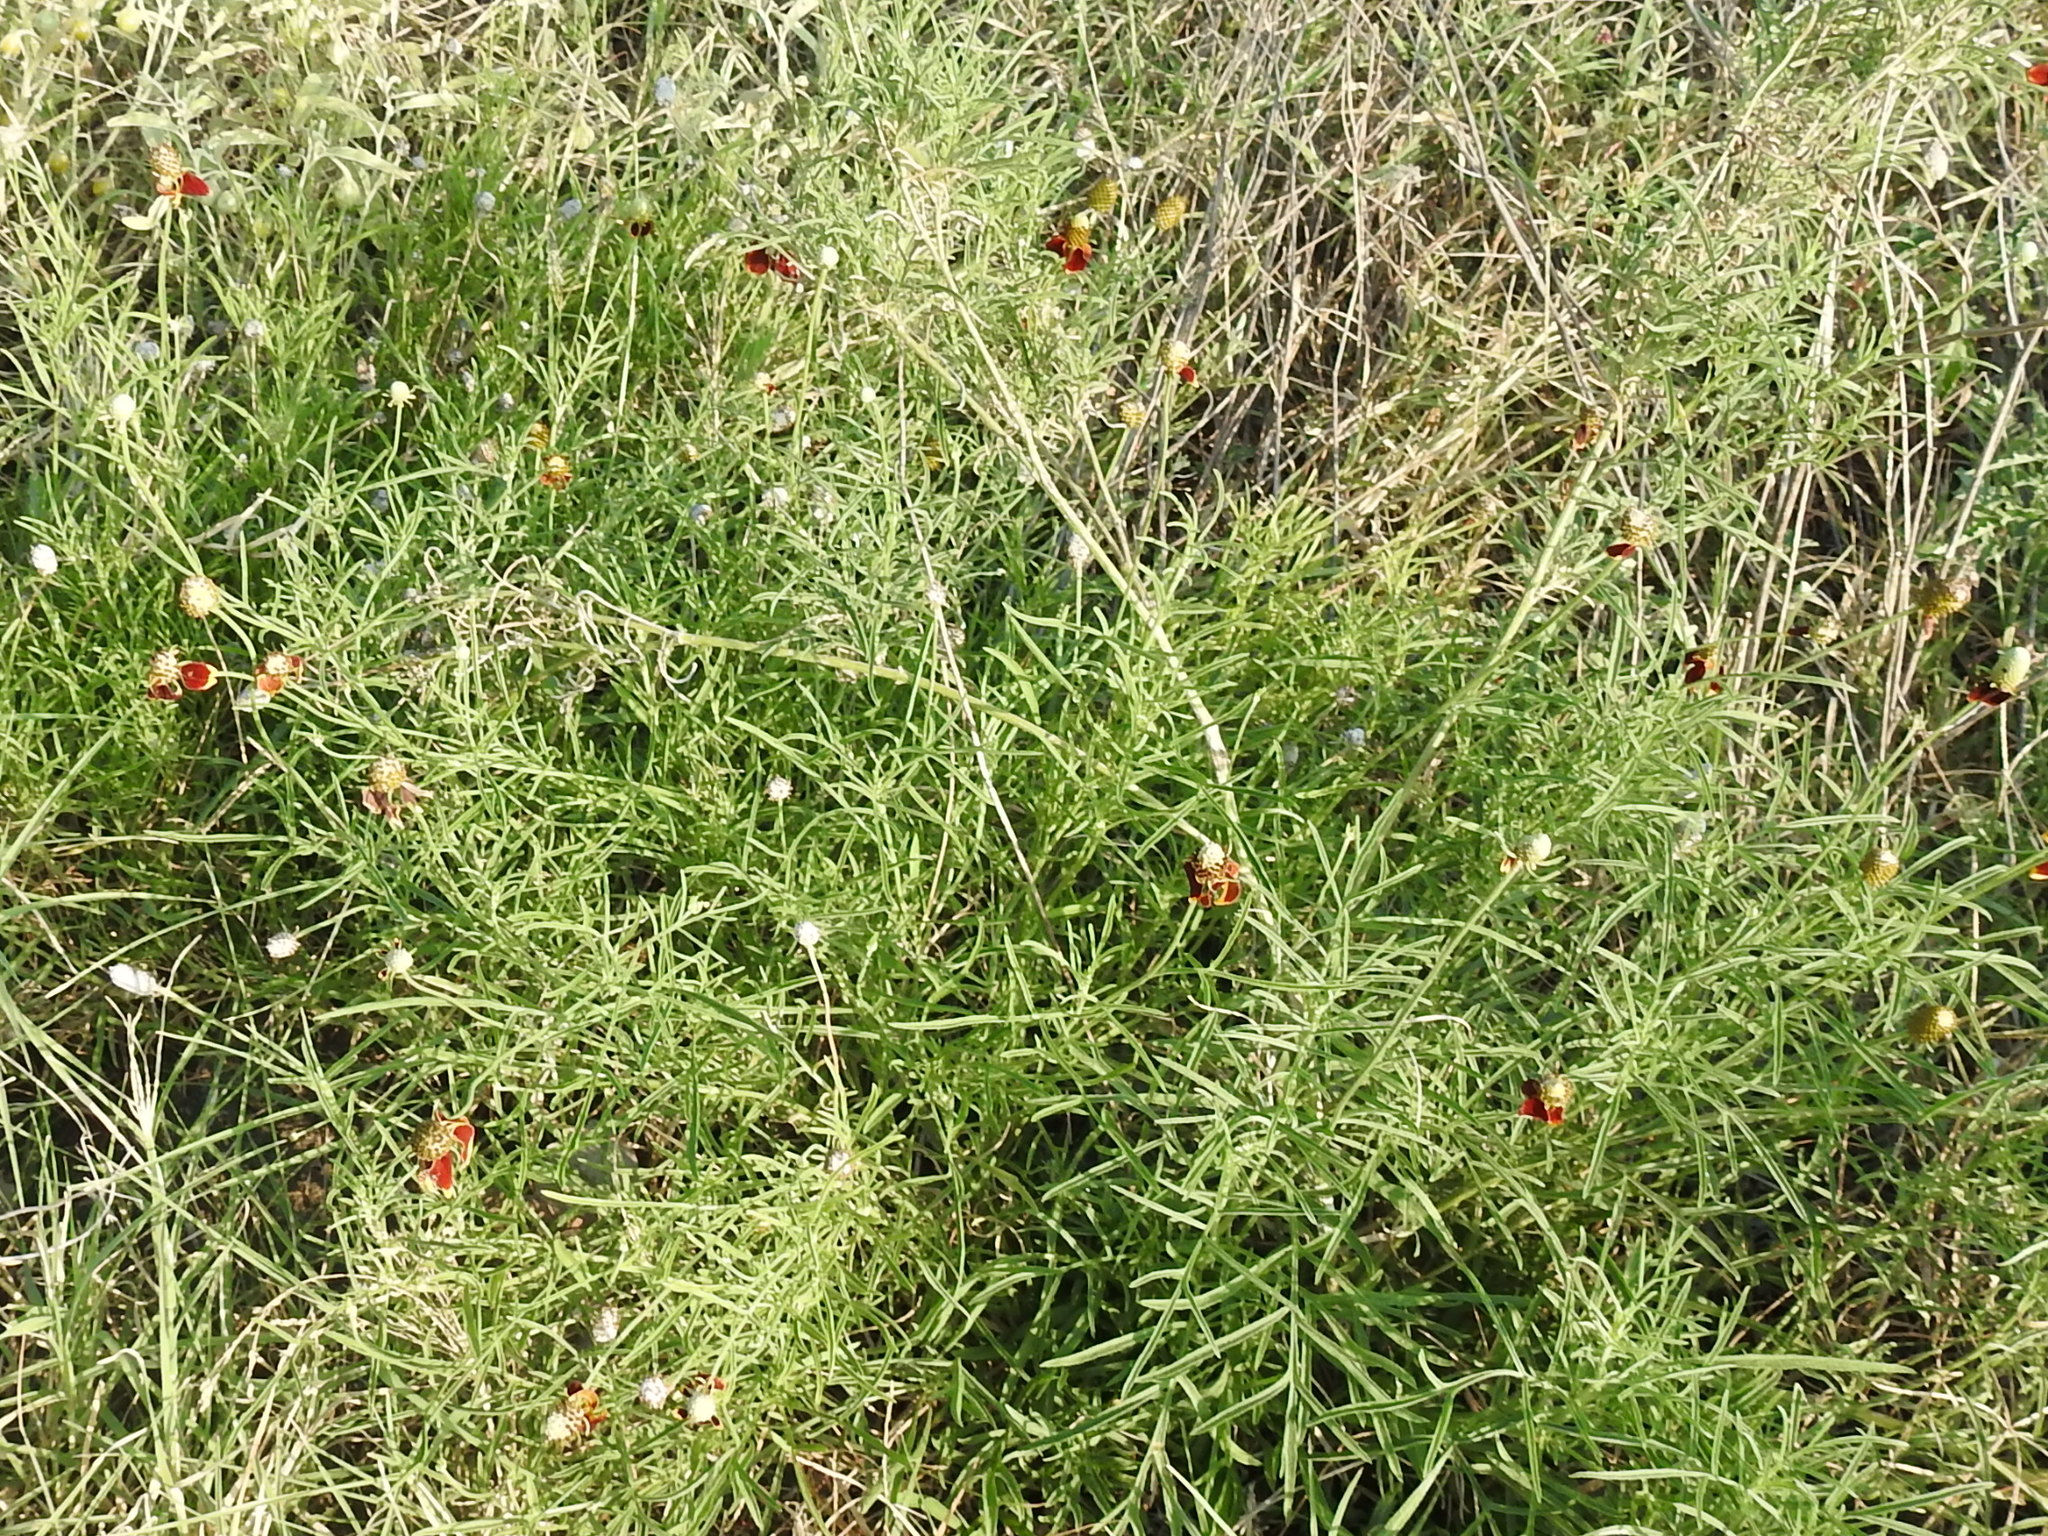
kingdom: Plantae
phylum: Tracheophyta
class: Magnoliopsida
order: Asterales
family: Asteraceae
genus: Ratibida
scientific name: Ratibida columnifera
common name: Prairie coneflower
